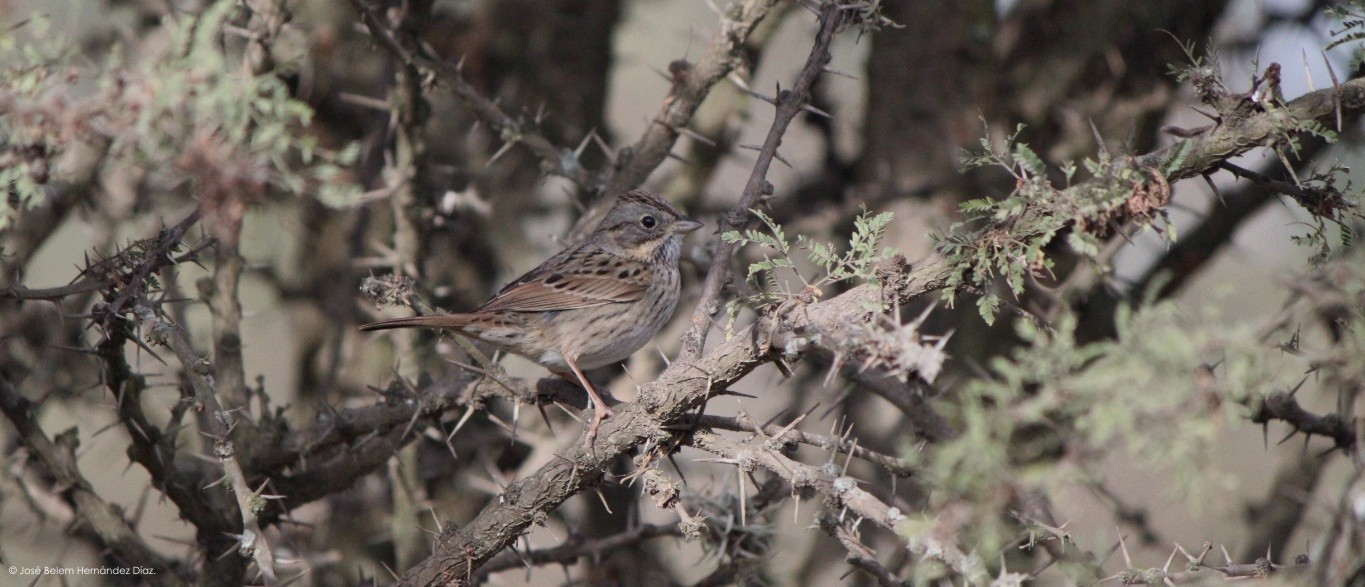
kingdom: Animalia
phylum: Chordata
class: Aves
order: Passeriformes
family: Passerellidae
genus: Melospiza
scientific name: Melospiza lincolnii
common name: Lincoln's sparrow
